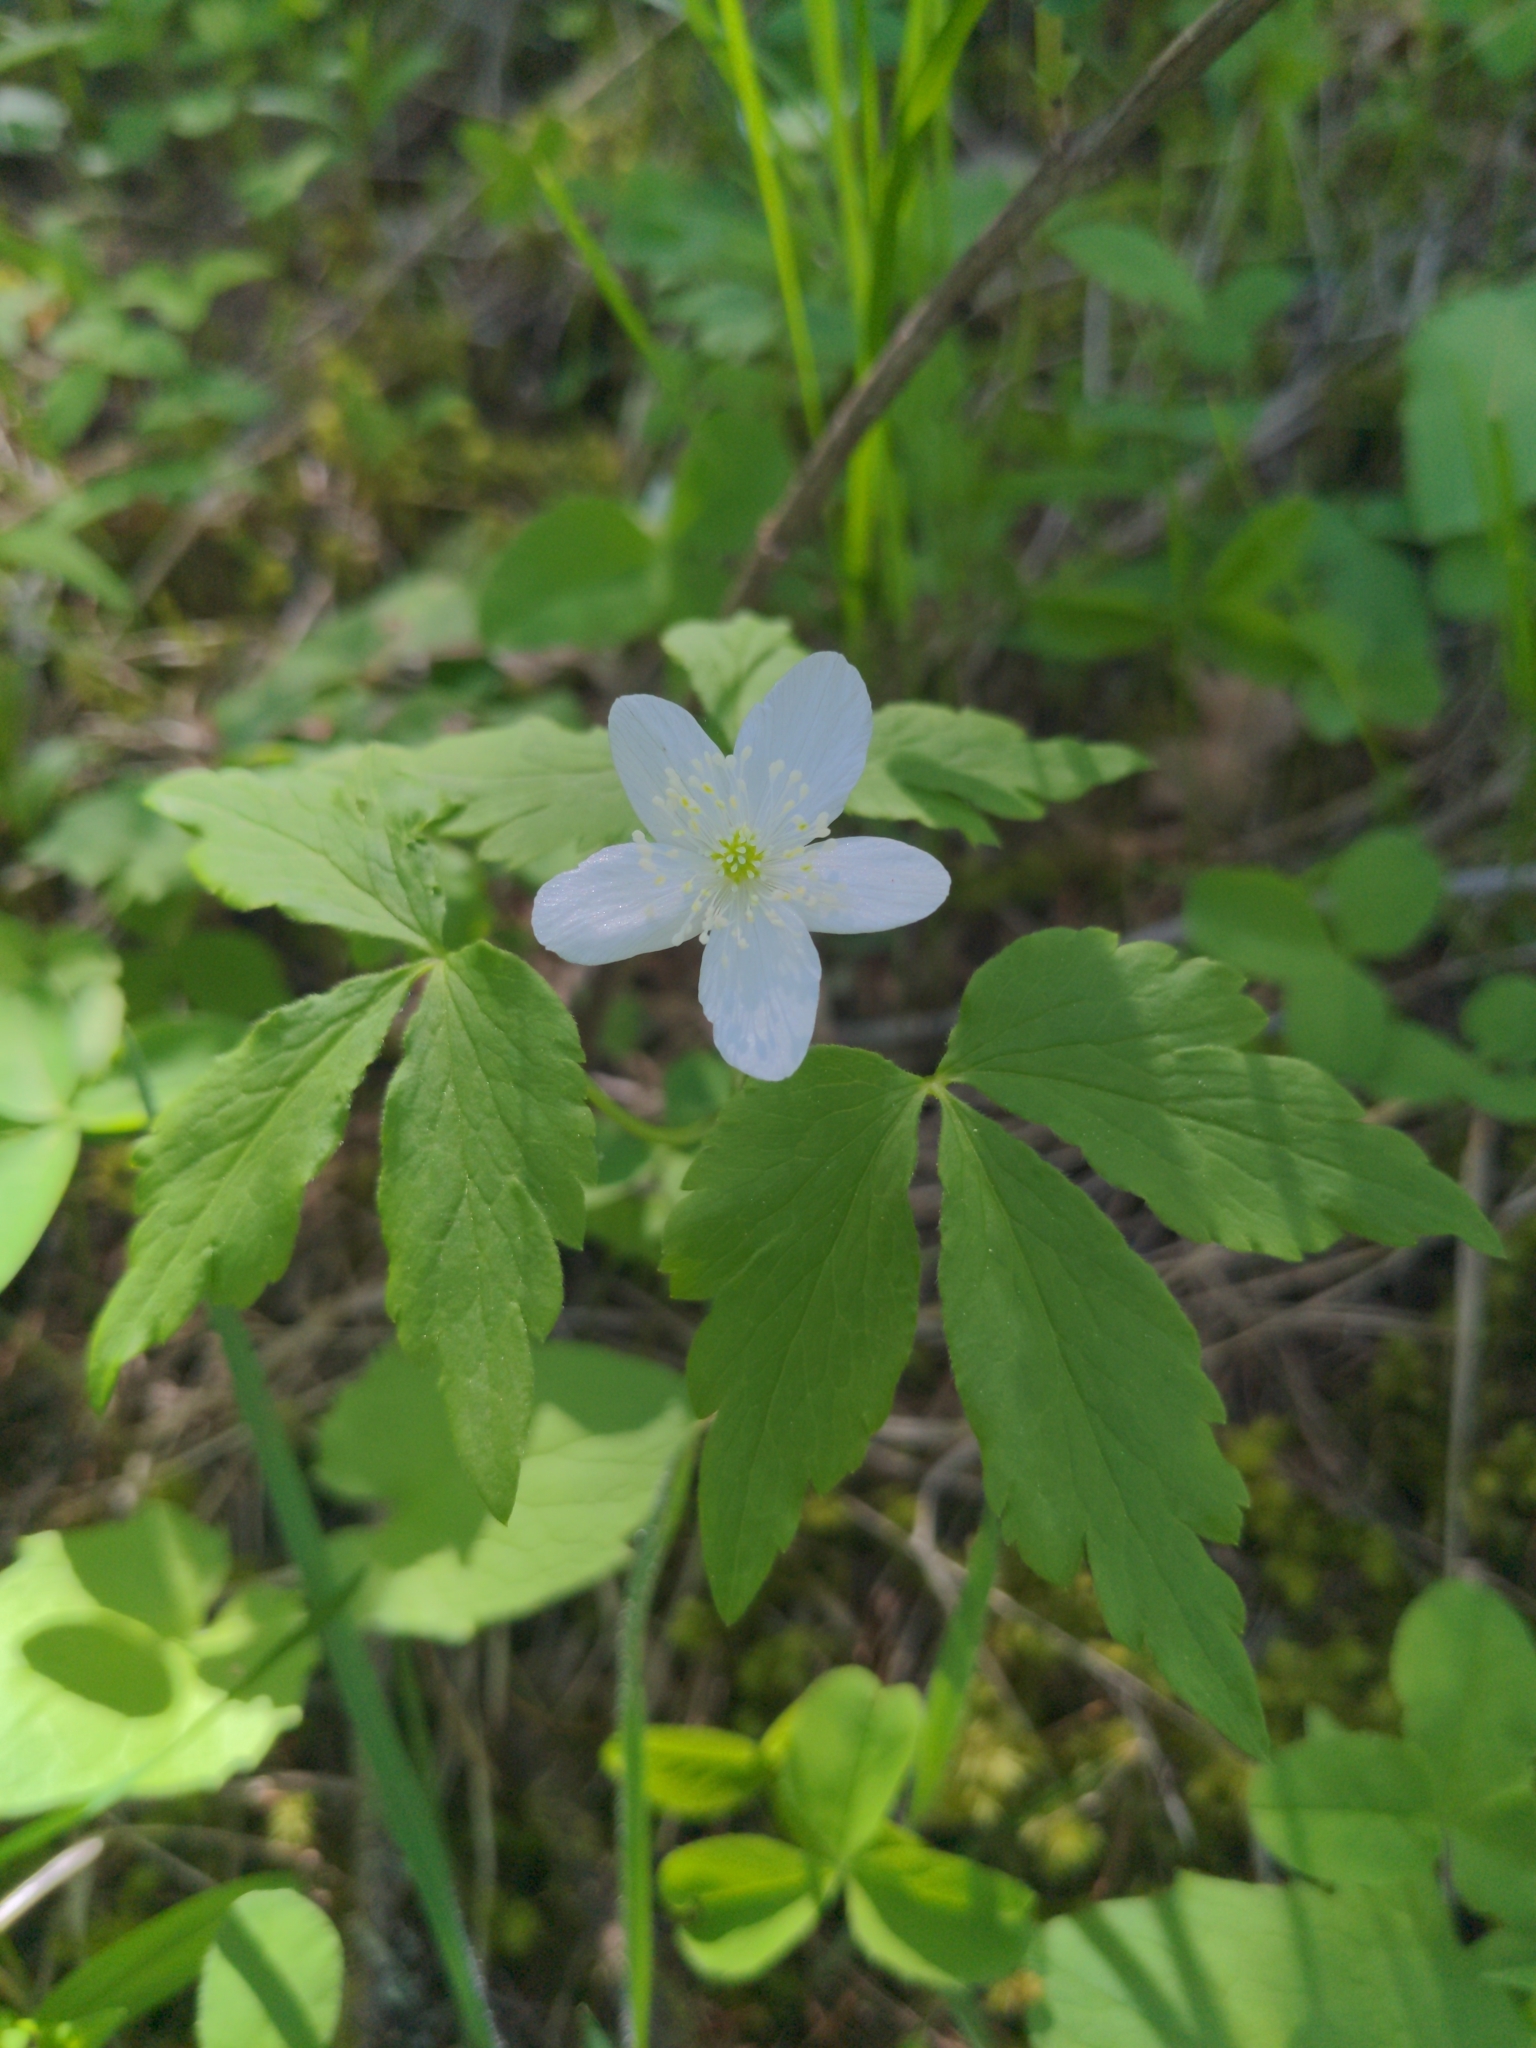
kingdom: Plantae
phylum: Tracheophyta
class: Magnoliopsida
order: Ranunculales
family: Ranunculaceae
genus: Anemone
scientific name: Anemone piperi
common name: Piper's anemone
